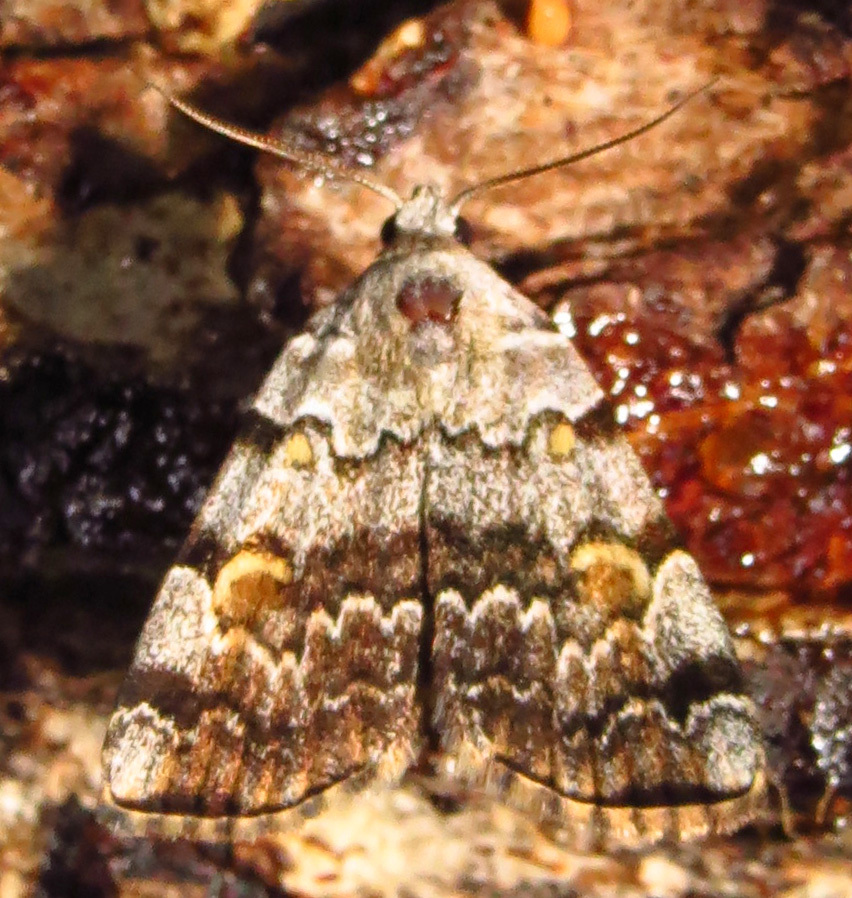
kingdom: Animalia
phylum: Arthropoda
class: Insecta
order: Lepidoptera
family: Erebidae
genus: Idia
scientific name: Idia americalis
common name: American idia moth
